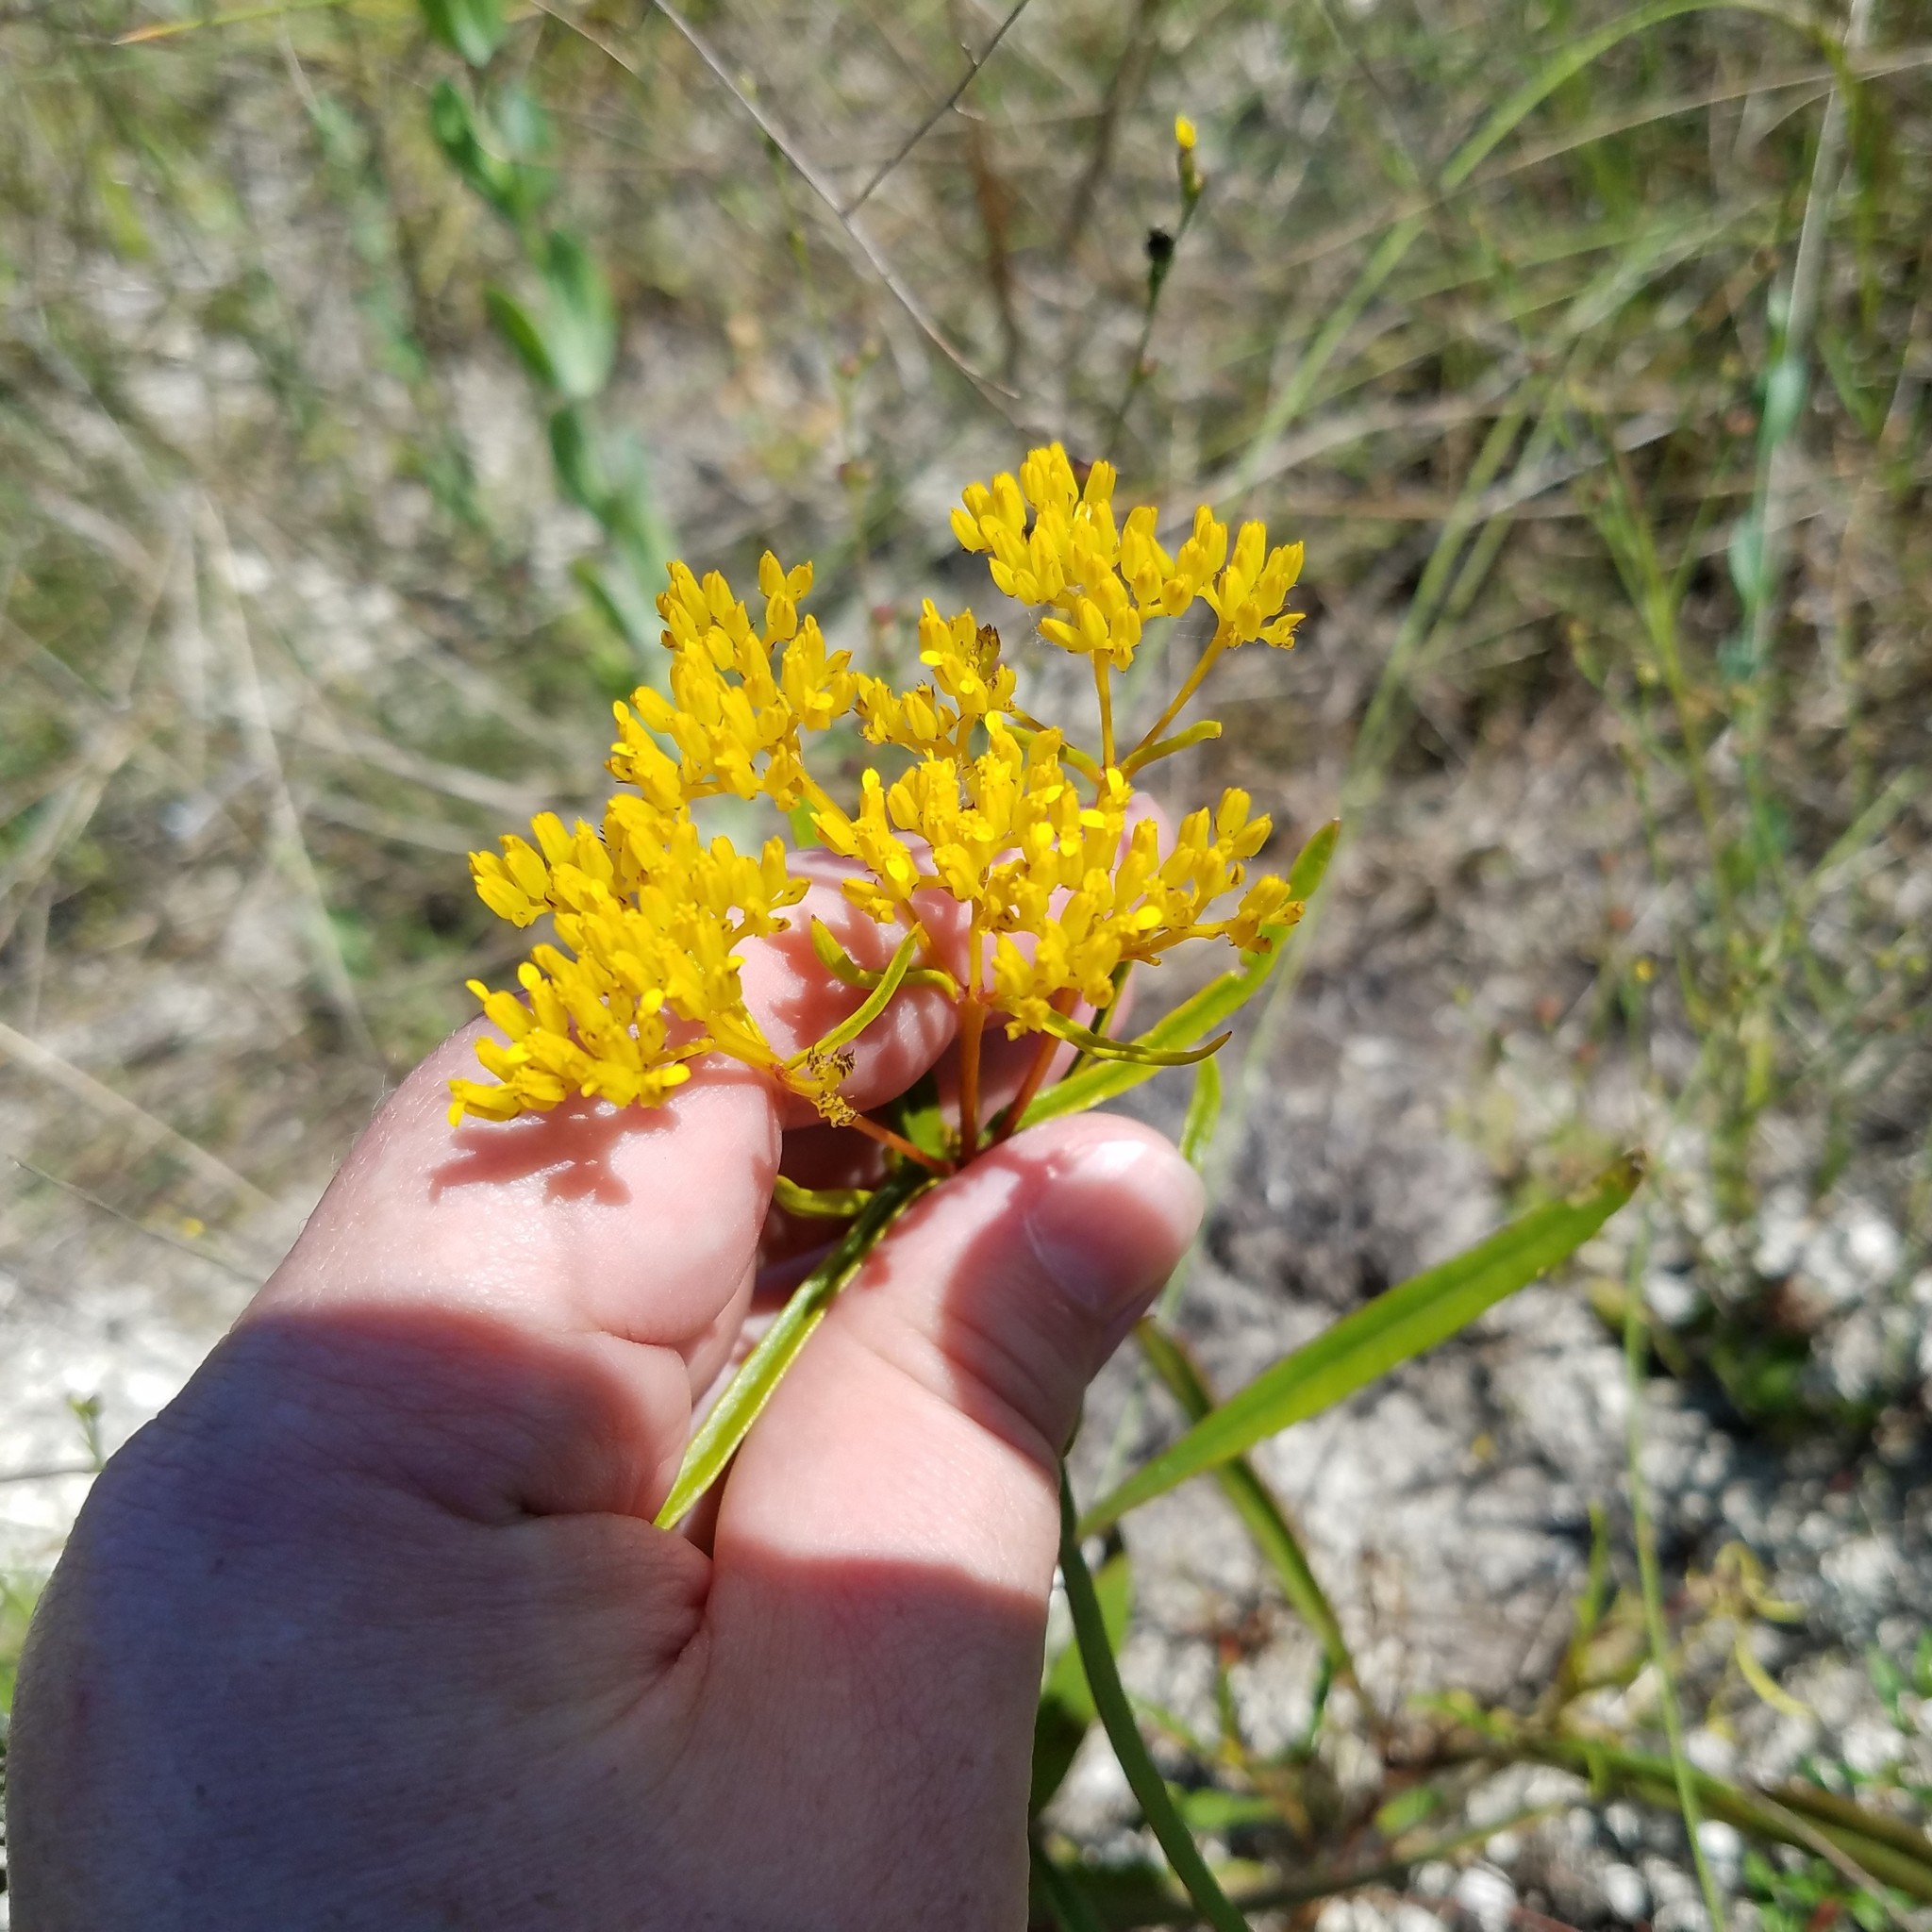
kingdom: Plantae
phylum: Tracheophyta
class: Magnoliopsida
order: Asterales
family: Asteraceae
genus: Flaveria
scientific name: Flaveria linearis
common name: Yellowtop
